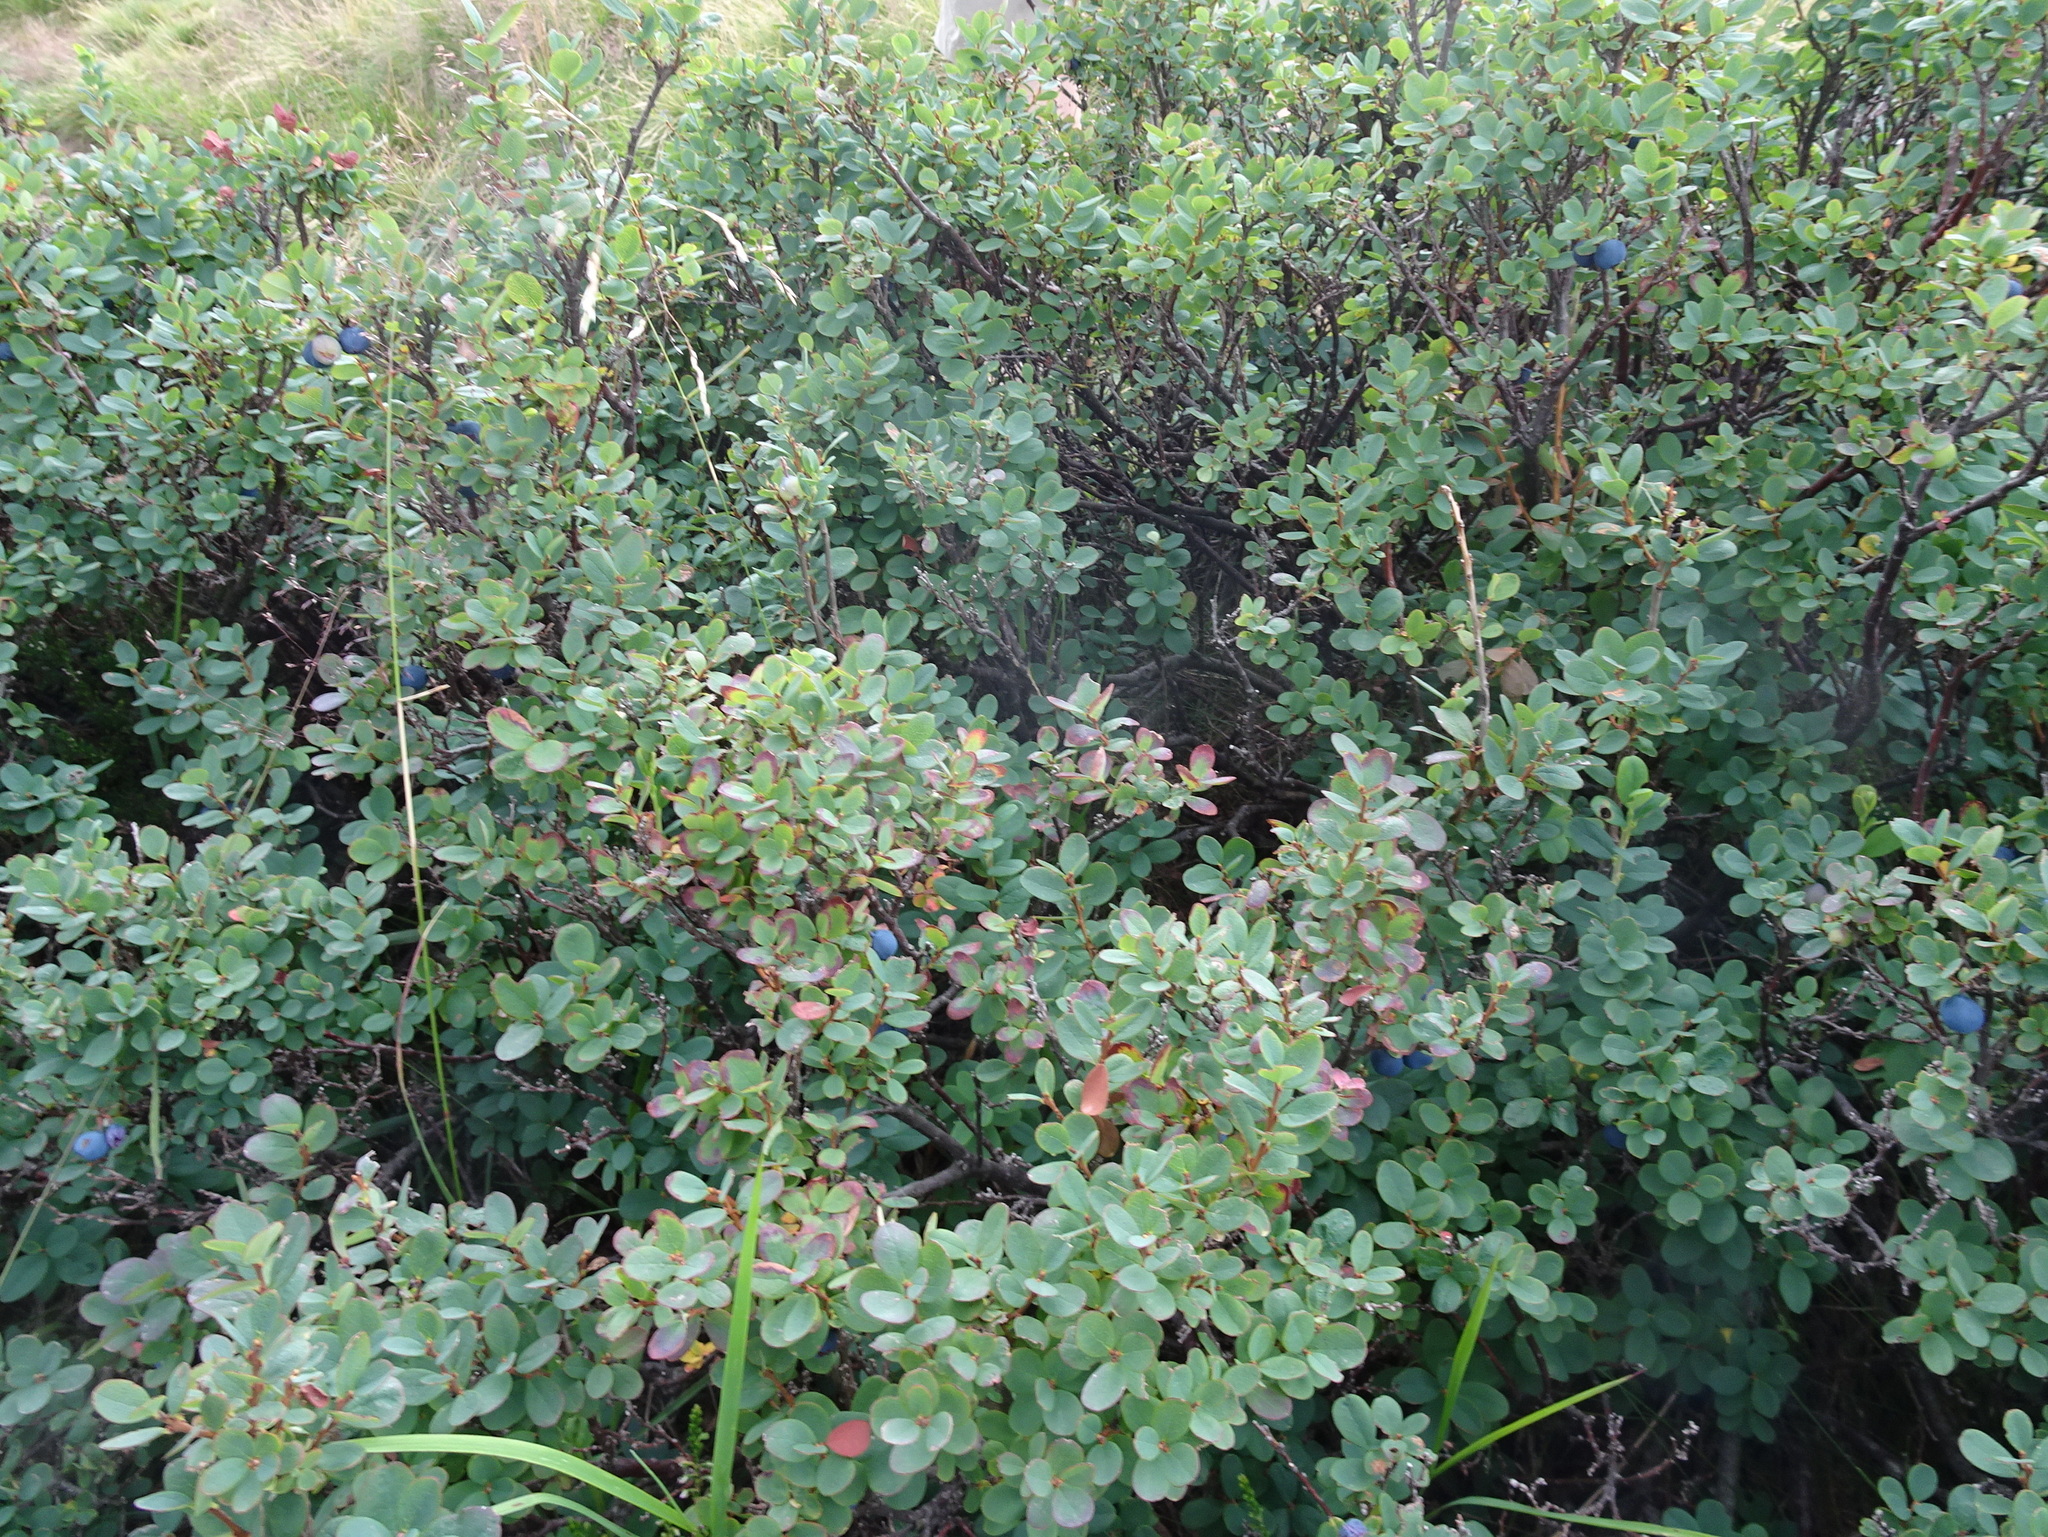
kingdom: Plantae
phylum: Tracheophyta
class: Magnoliopsida
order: Ericales
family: Ericaceae
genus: Vaccinium
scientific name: Vaccinium uliginosum
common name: Bog bilberry
